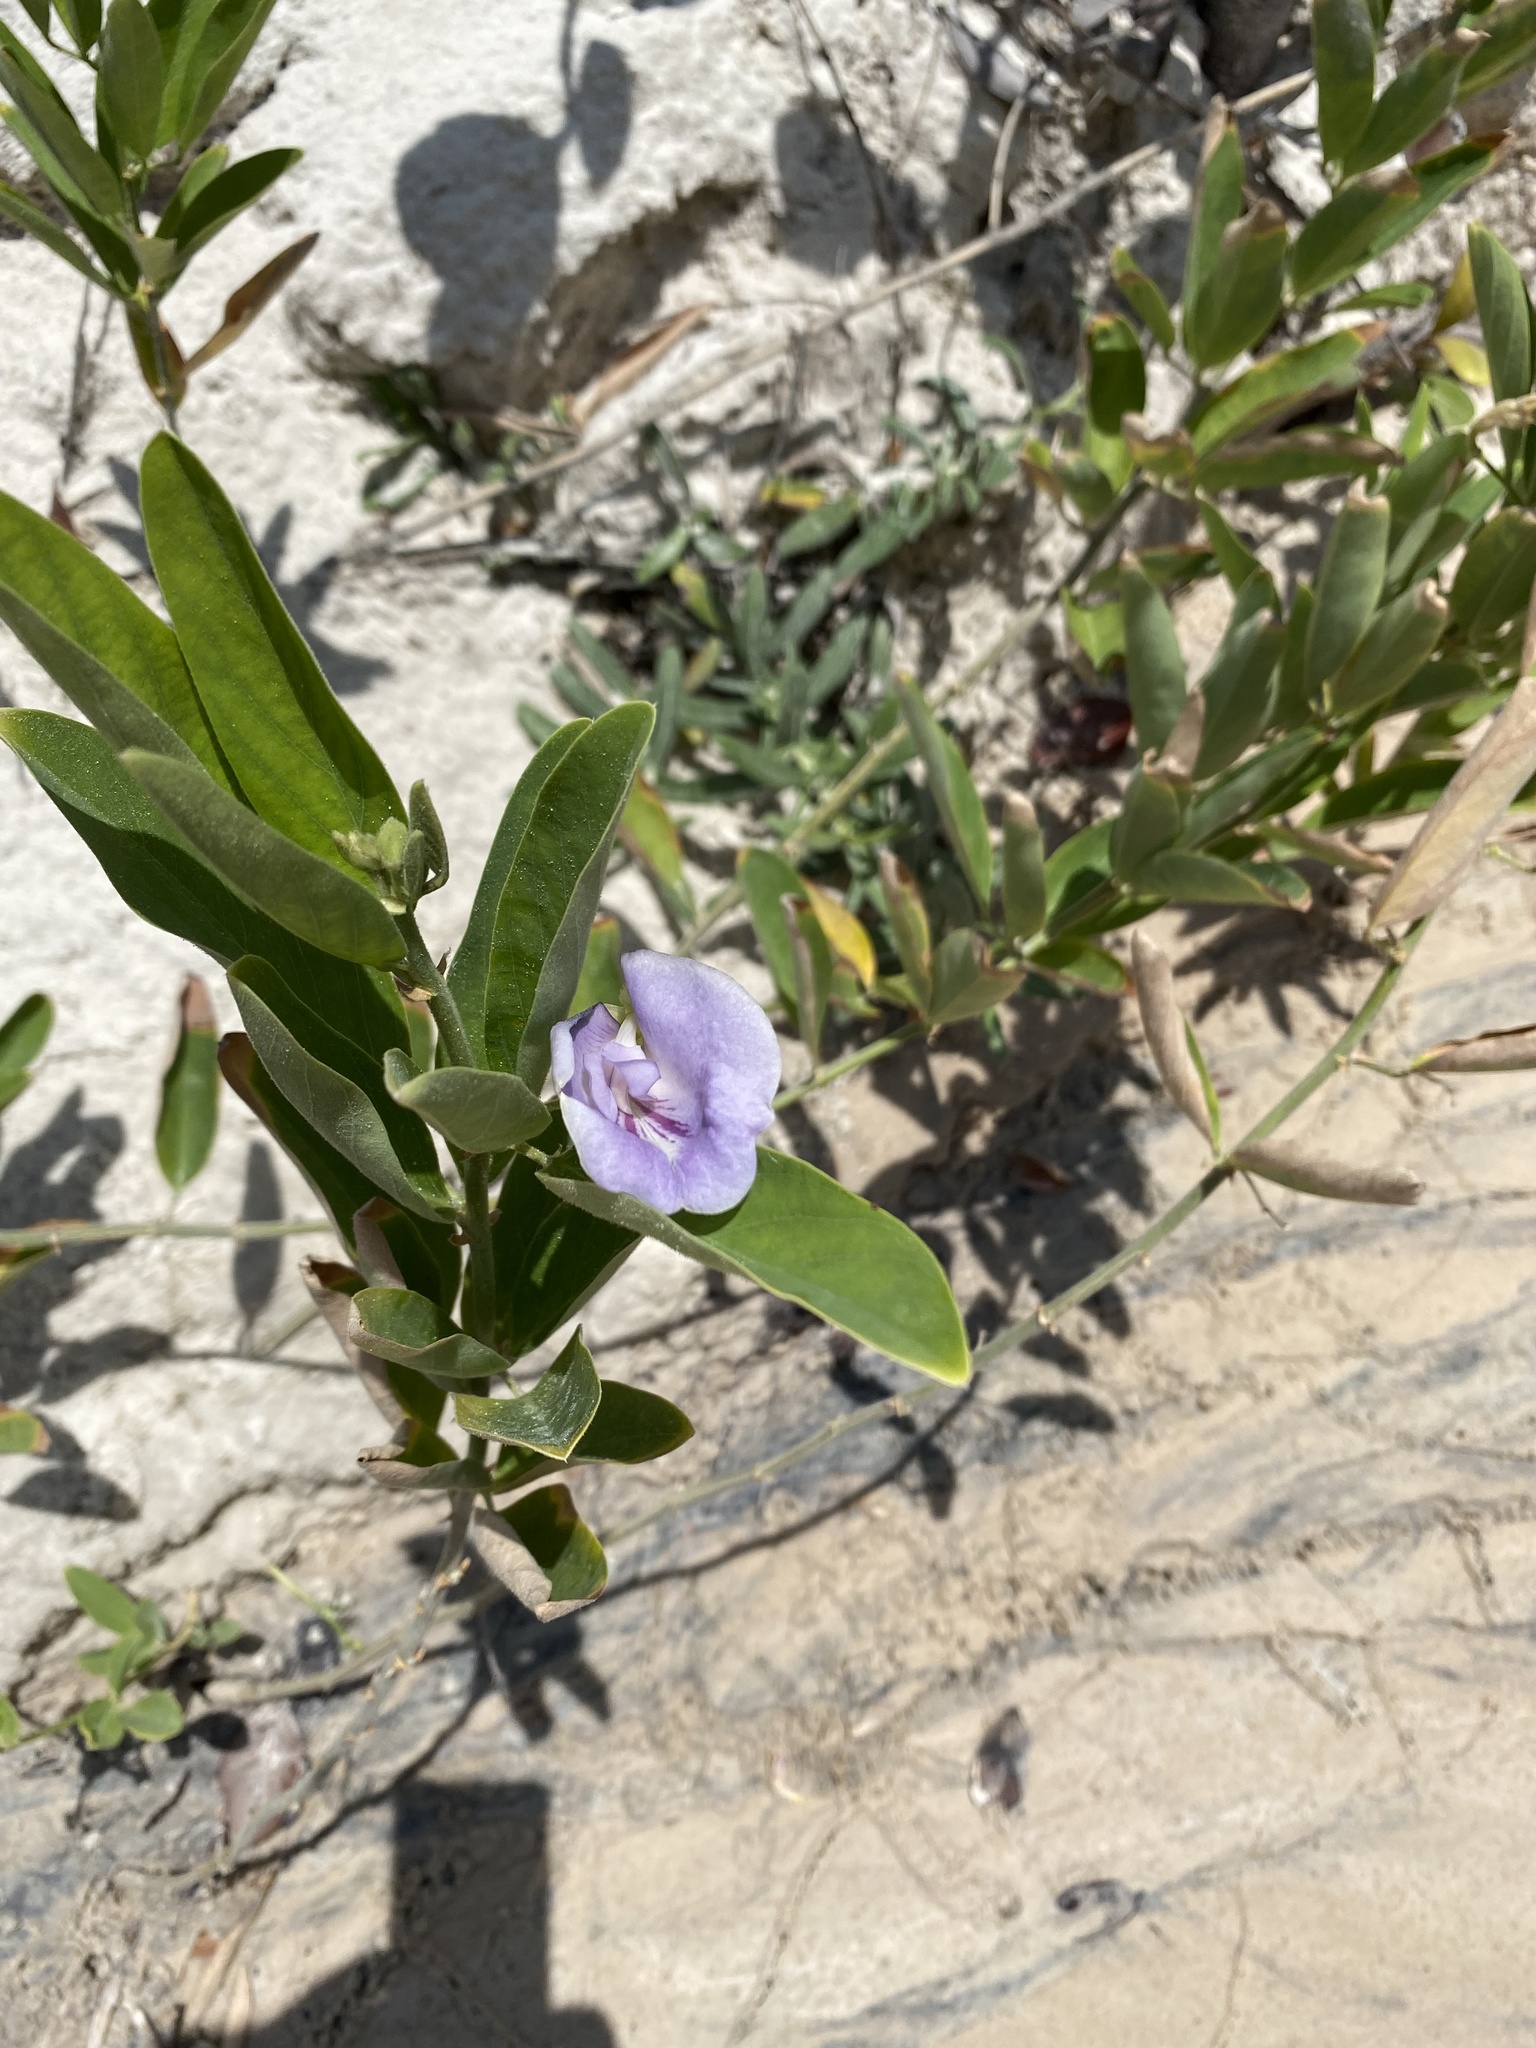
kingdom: Plantae
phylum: Tracheophyta
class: Magnoliopsida
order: Fabales
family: Fabaceae
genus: Clitoria
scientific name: Clitoria laurifolia
